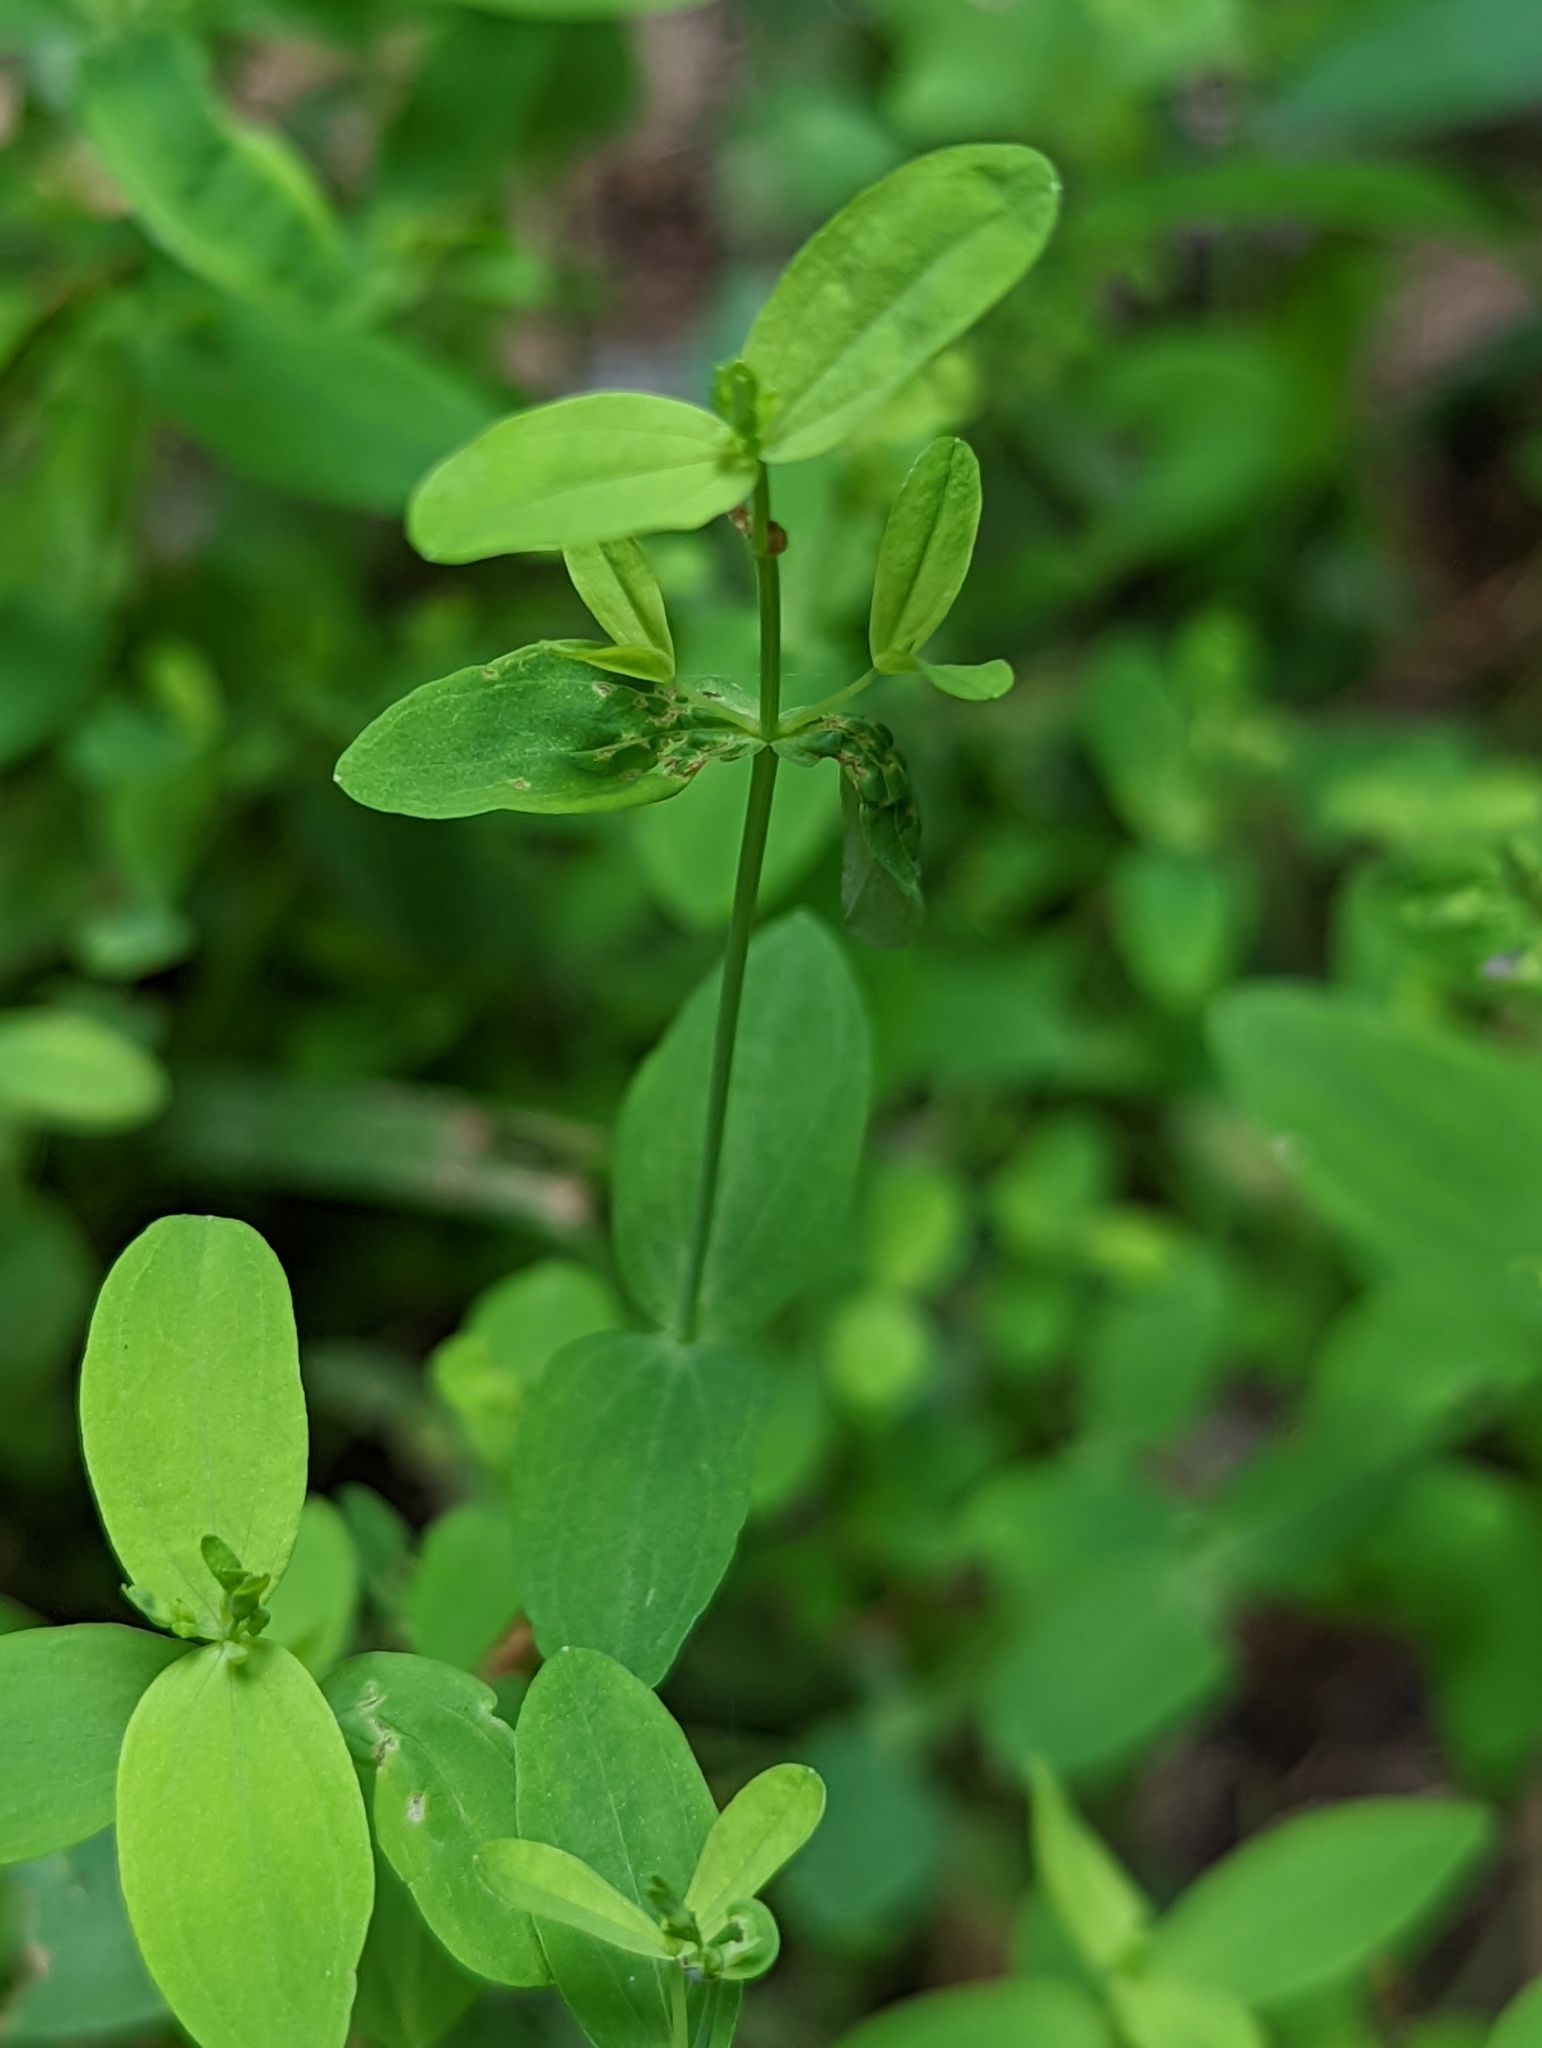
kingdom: Plantae
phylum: Tracheophyta
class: Magnoliopsida
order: Malpighiales
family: Hypericaceae
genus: Hypericum
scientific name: Hypericum mutilum
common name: Dwarf st. john's-wort
